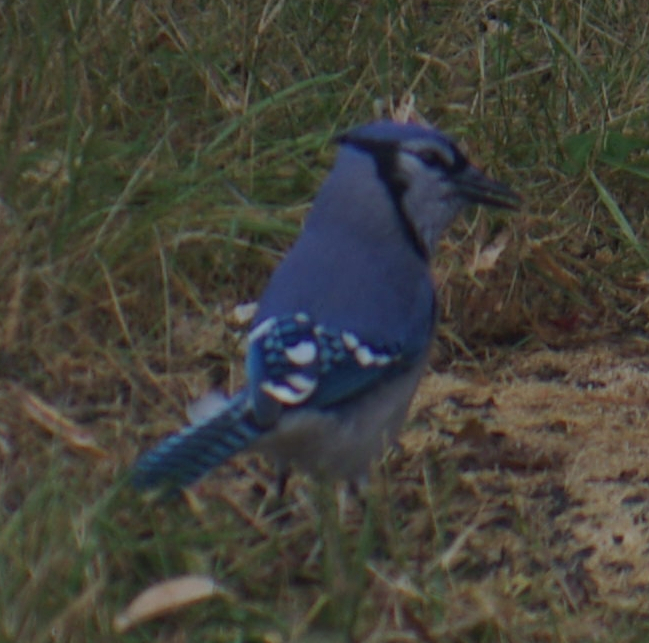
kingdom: Animalia
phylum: Chordata
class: Aves
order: Passeriformes
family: Corvidae
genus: Cyanocitta
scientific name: Cyanocitta cristata
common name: Blue jay
